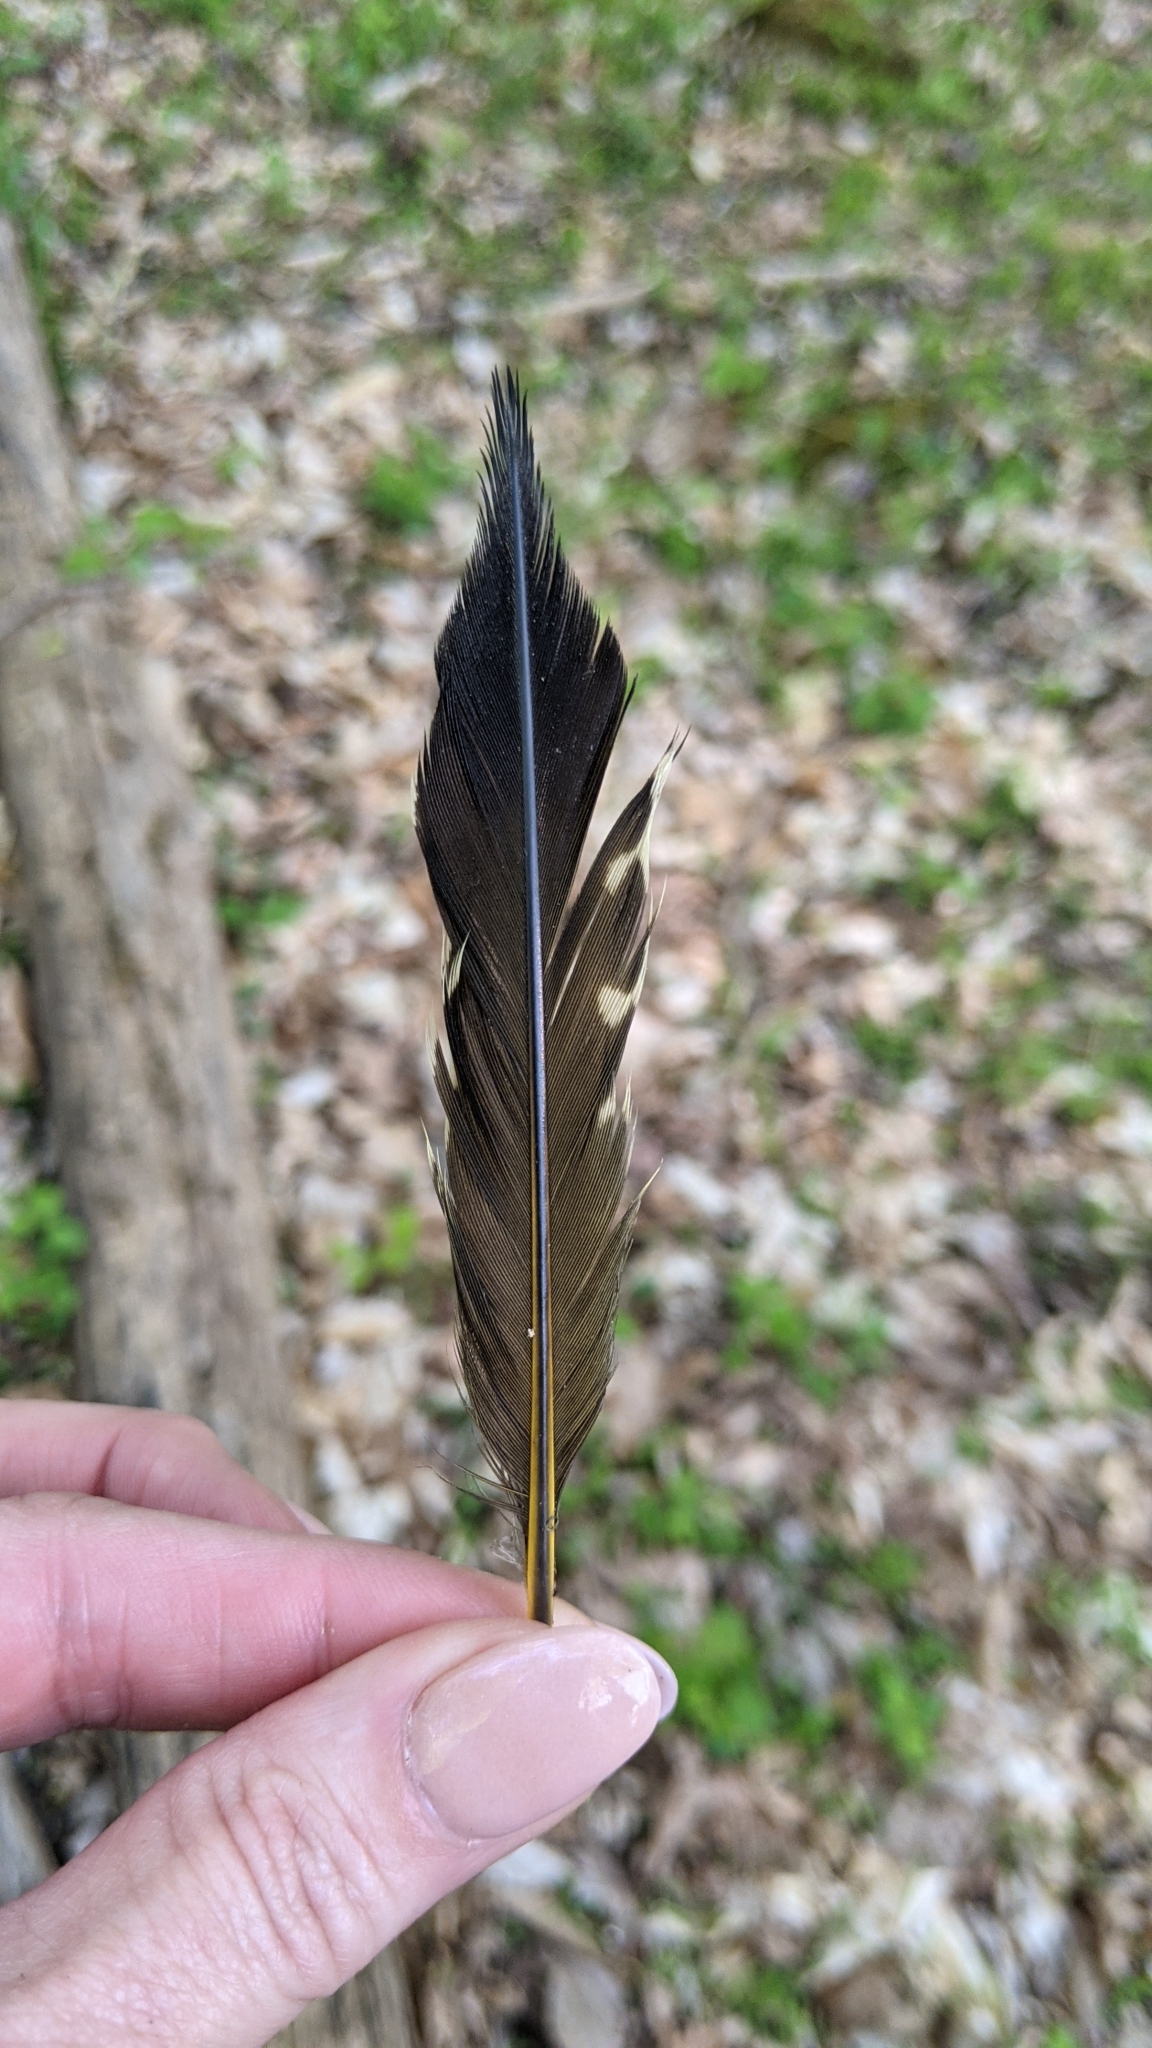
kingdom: Animalia
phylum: Chordata
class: Aves
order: Piciformes
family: Picidae
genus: Colaptes
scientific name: Colaptes auratus
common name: Northern flicker
